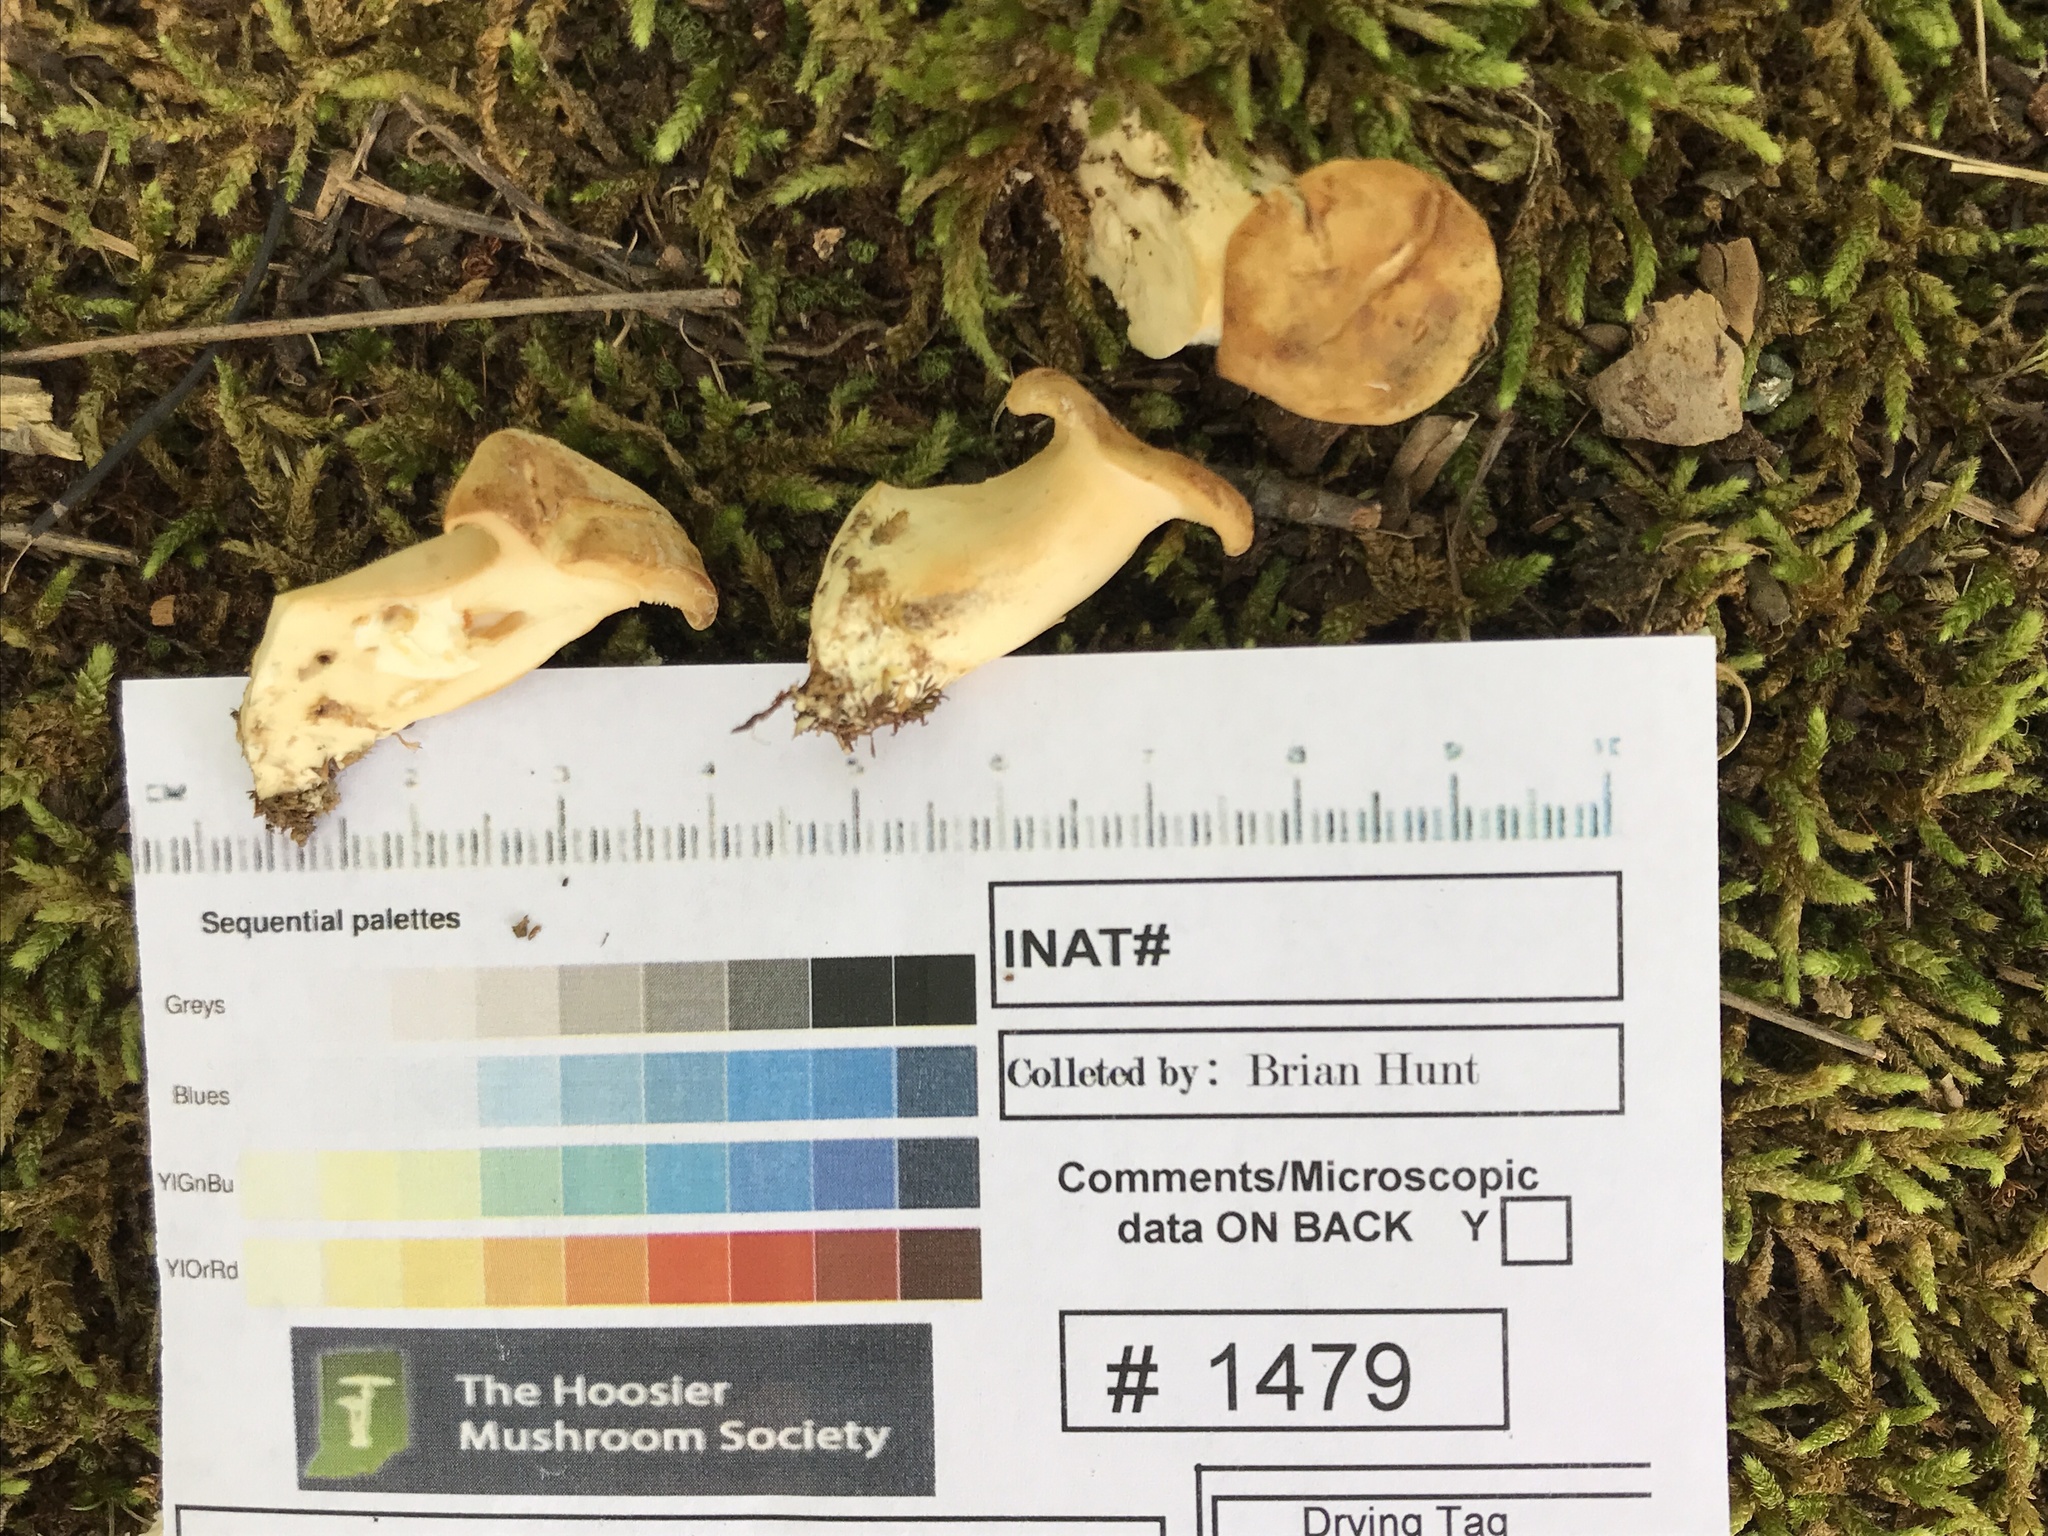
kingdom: Fungi
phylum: Basidiomycota
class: Agaricomycetes
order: Cantharellales
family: Hydnaceae
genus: Hydnum
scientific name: Hydnum aerostatisporum
